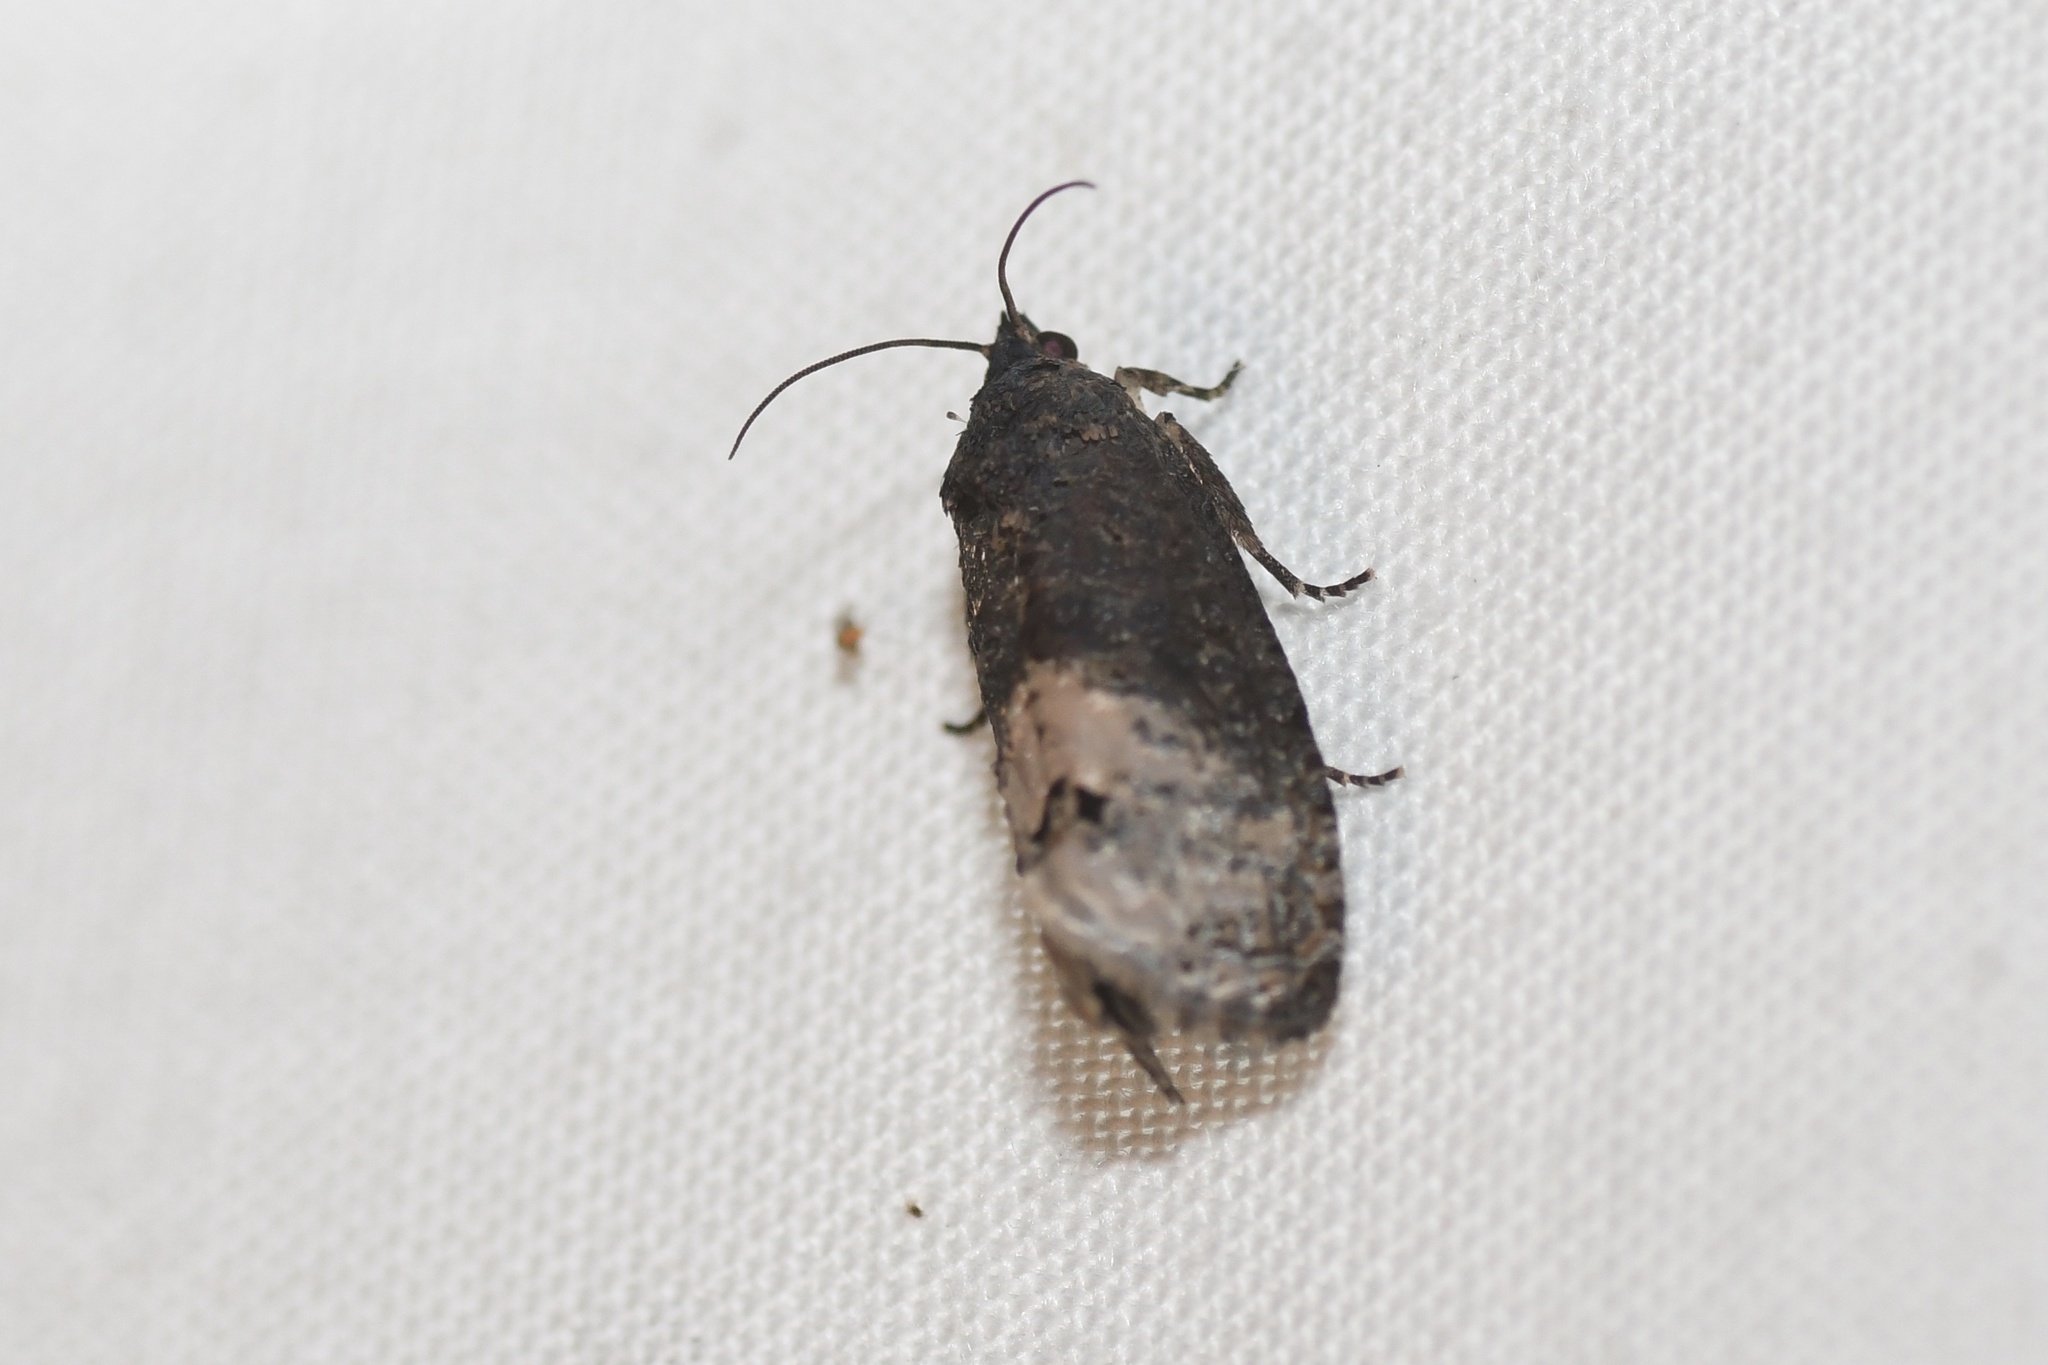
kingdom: Animalia
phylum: Arthropoda
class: Insecta
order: Lepidoptera
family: Tortricidae
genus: Ecdytolopha
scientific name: Ecdytolopha insiticiana
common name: Locust twig borer moth
